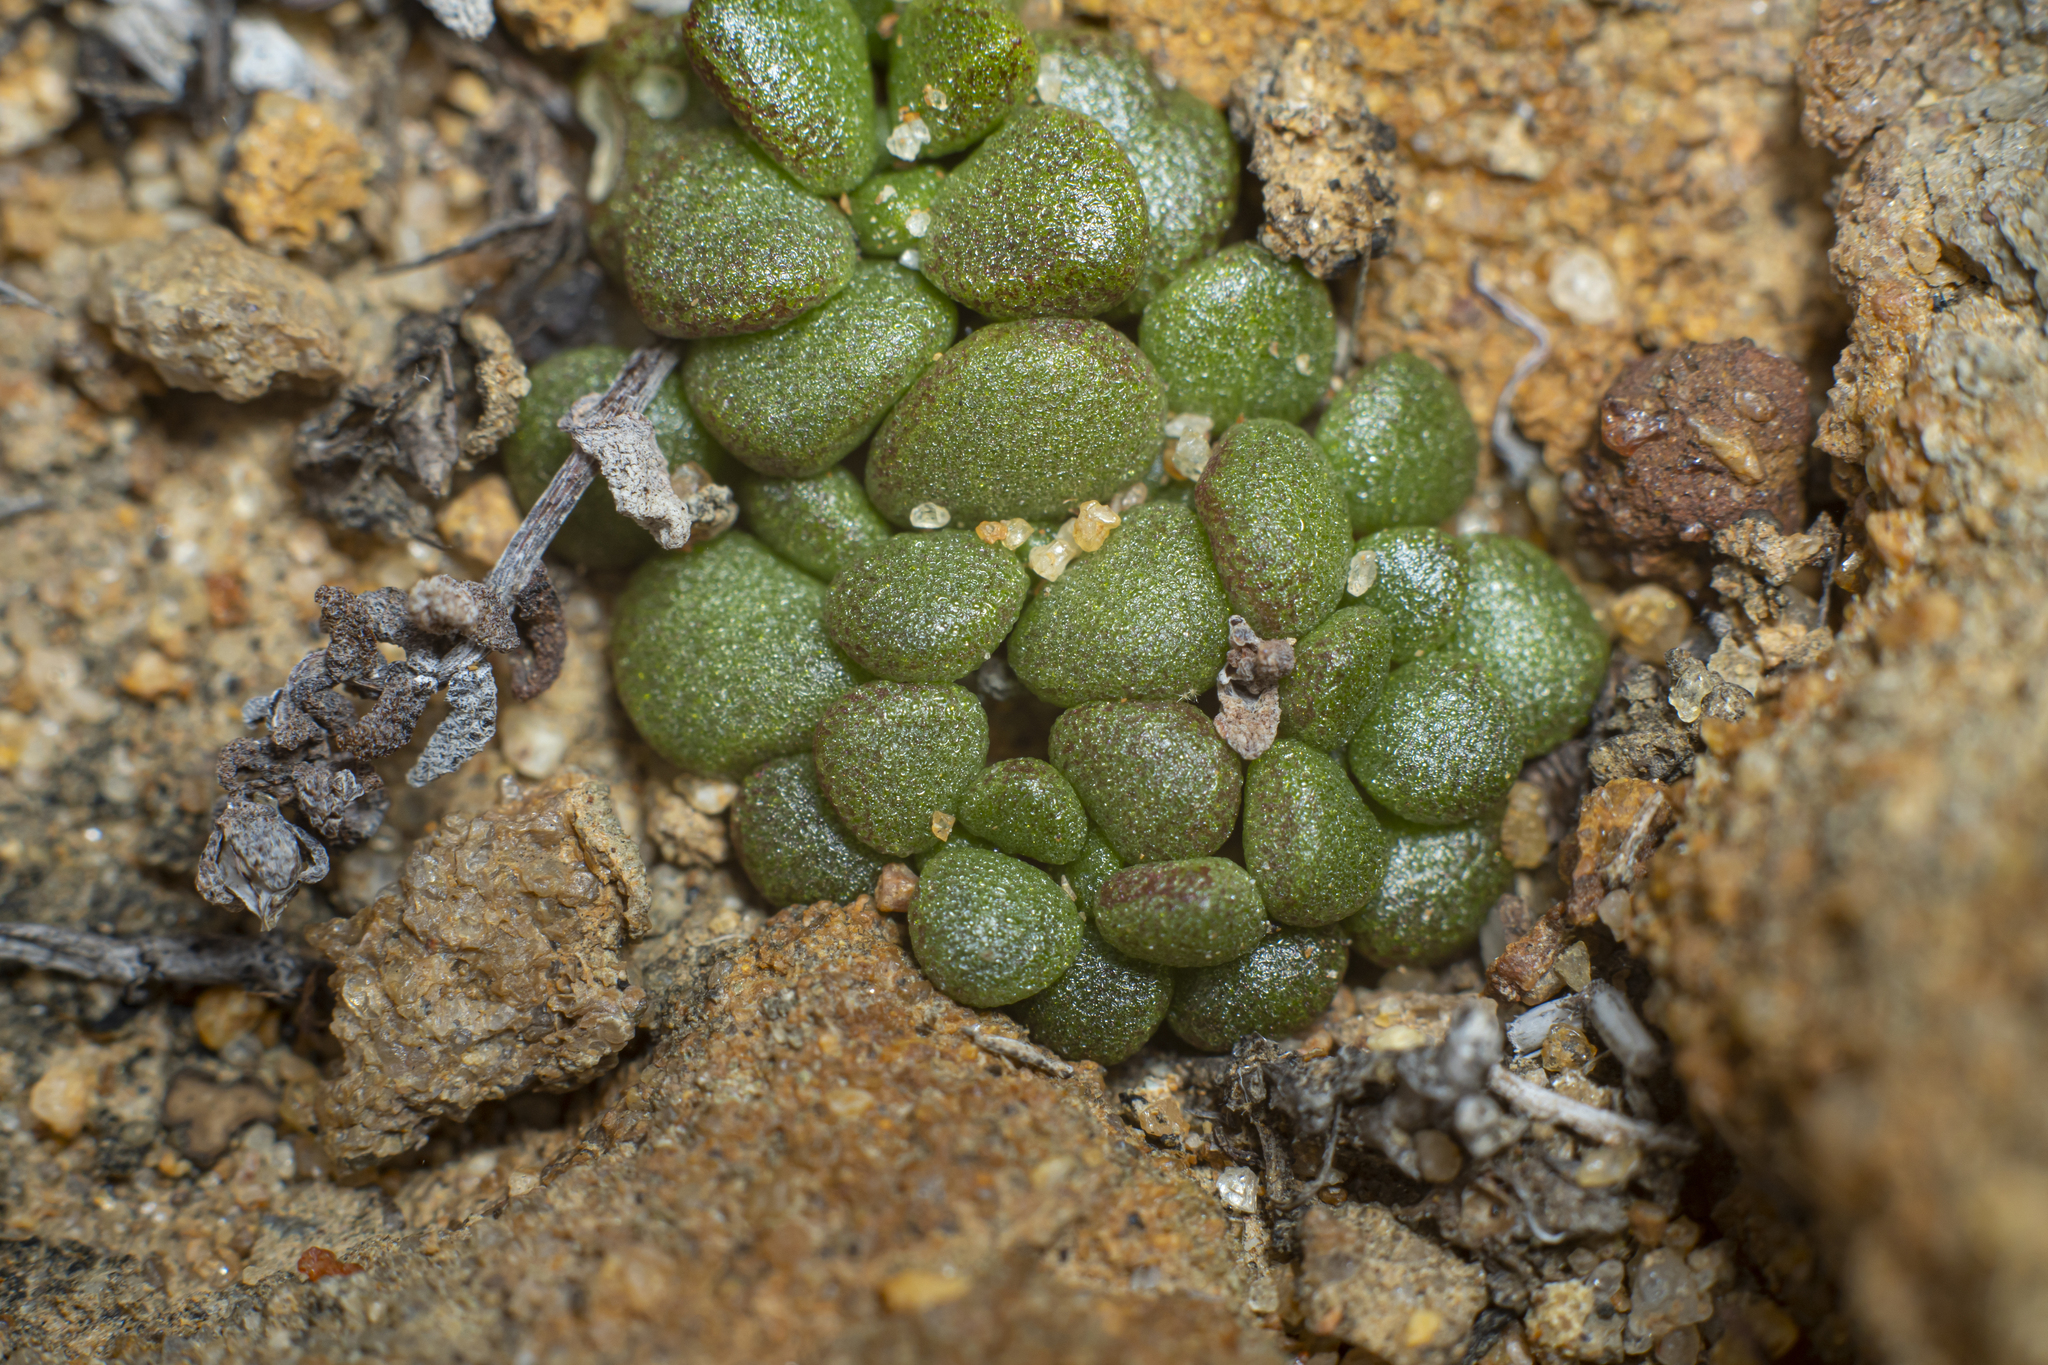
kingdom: Plantae
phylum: Tracheophyta
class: Magnoliopsida
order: Saxifragales
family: Crassulaceae
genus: Dudleya
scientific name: Dudleya blochmaniae
